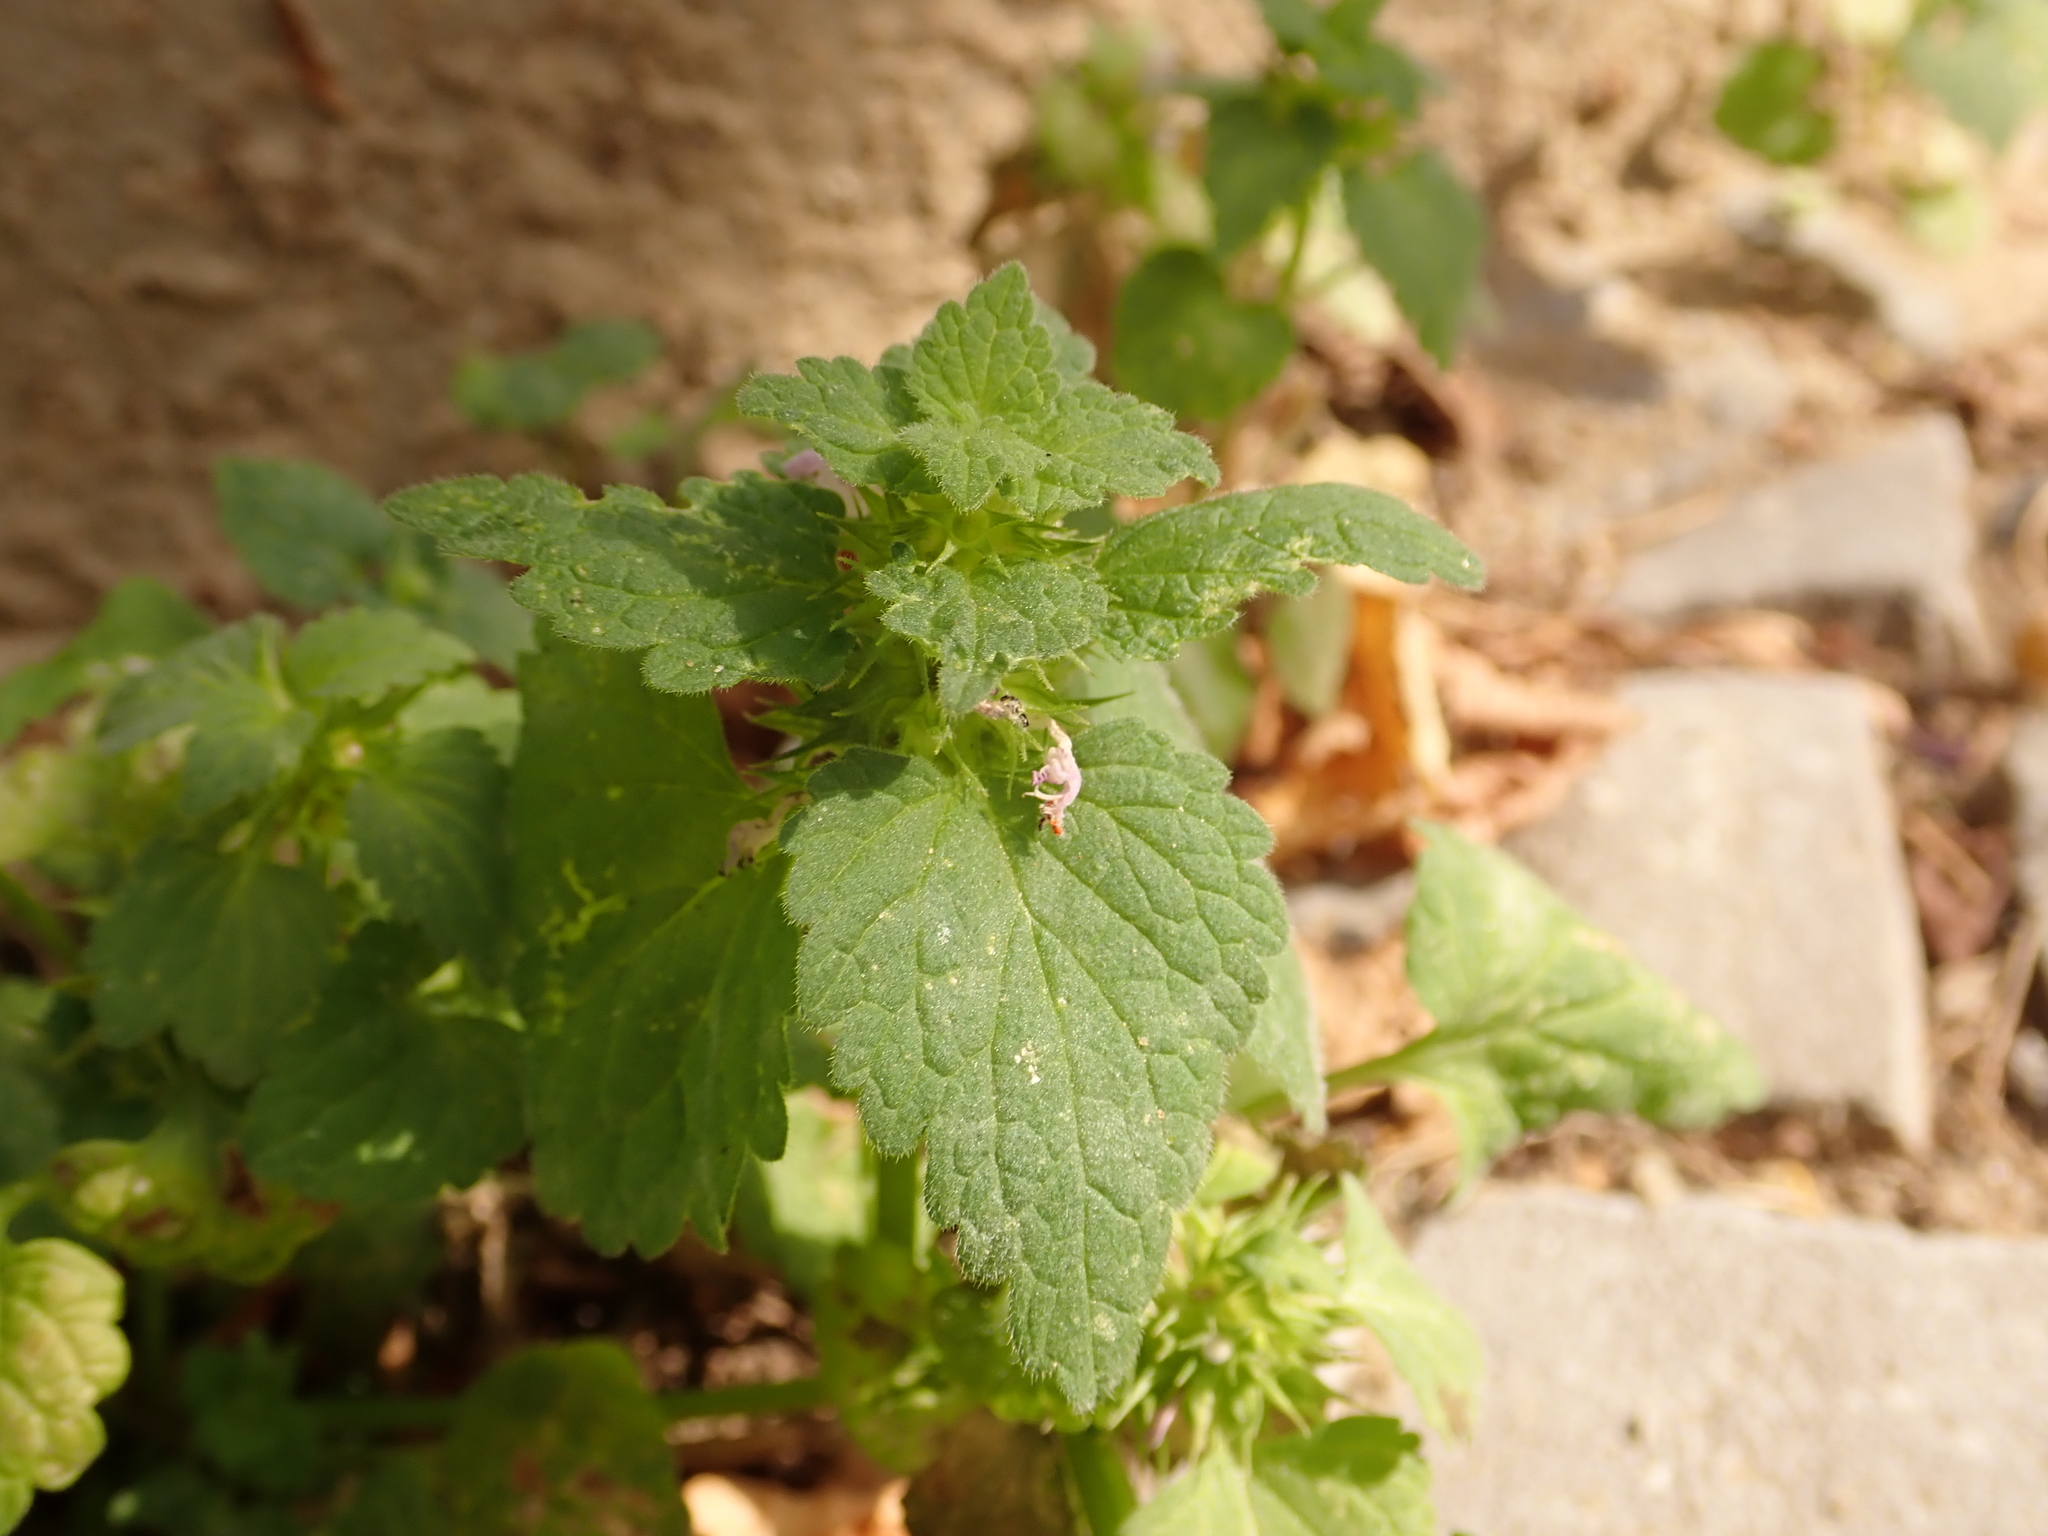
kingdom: Plantae
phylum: Tracheophyta
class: Magnoliopsida
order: Lamiales
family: Lamiaceae
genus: Ballota
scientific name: Ballota nigra
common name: Black horehound
